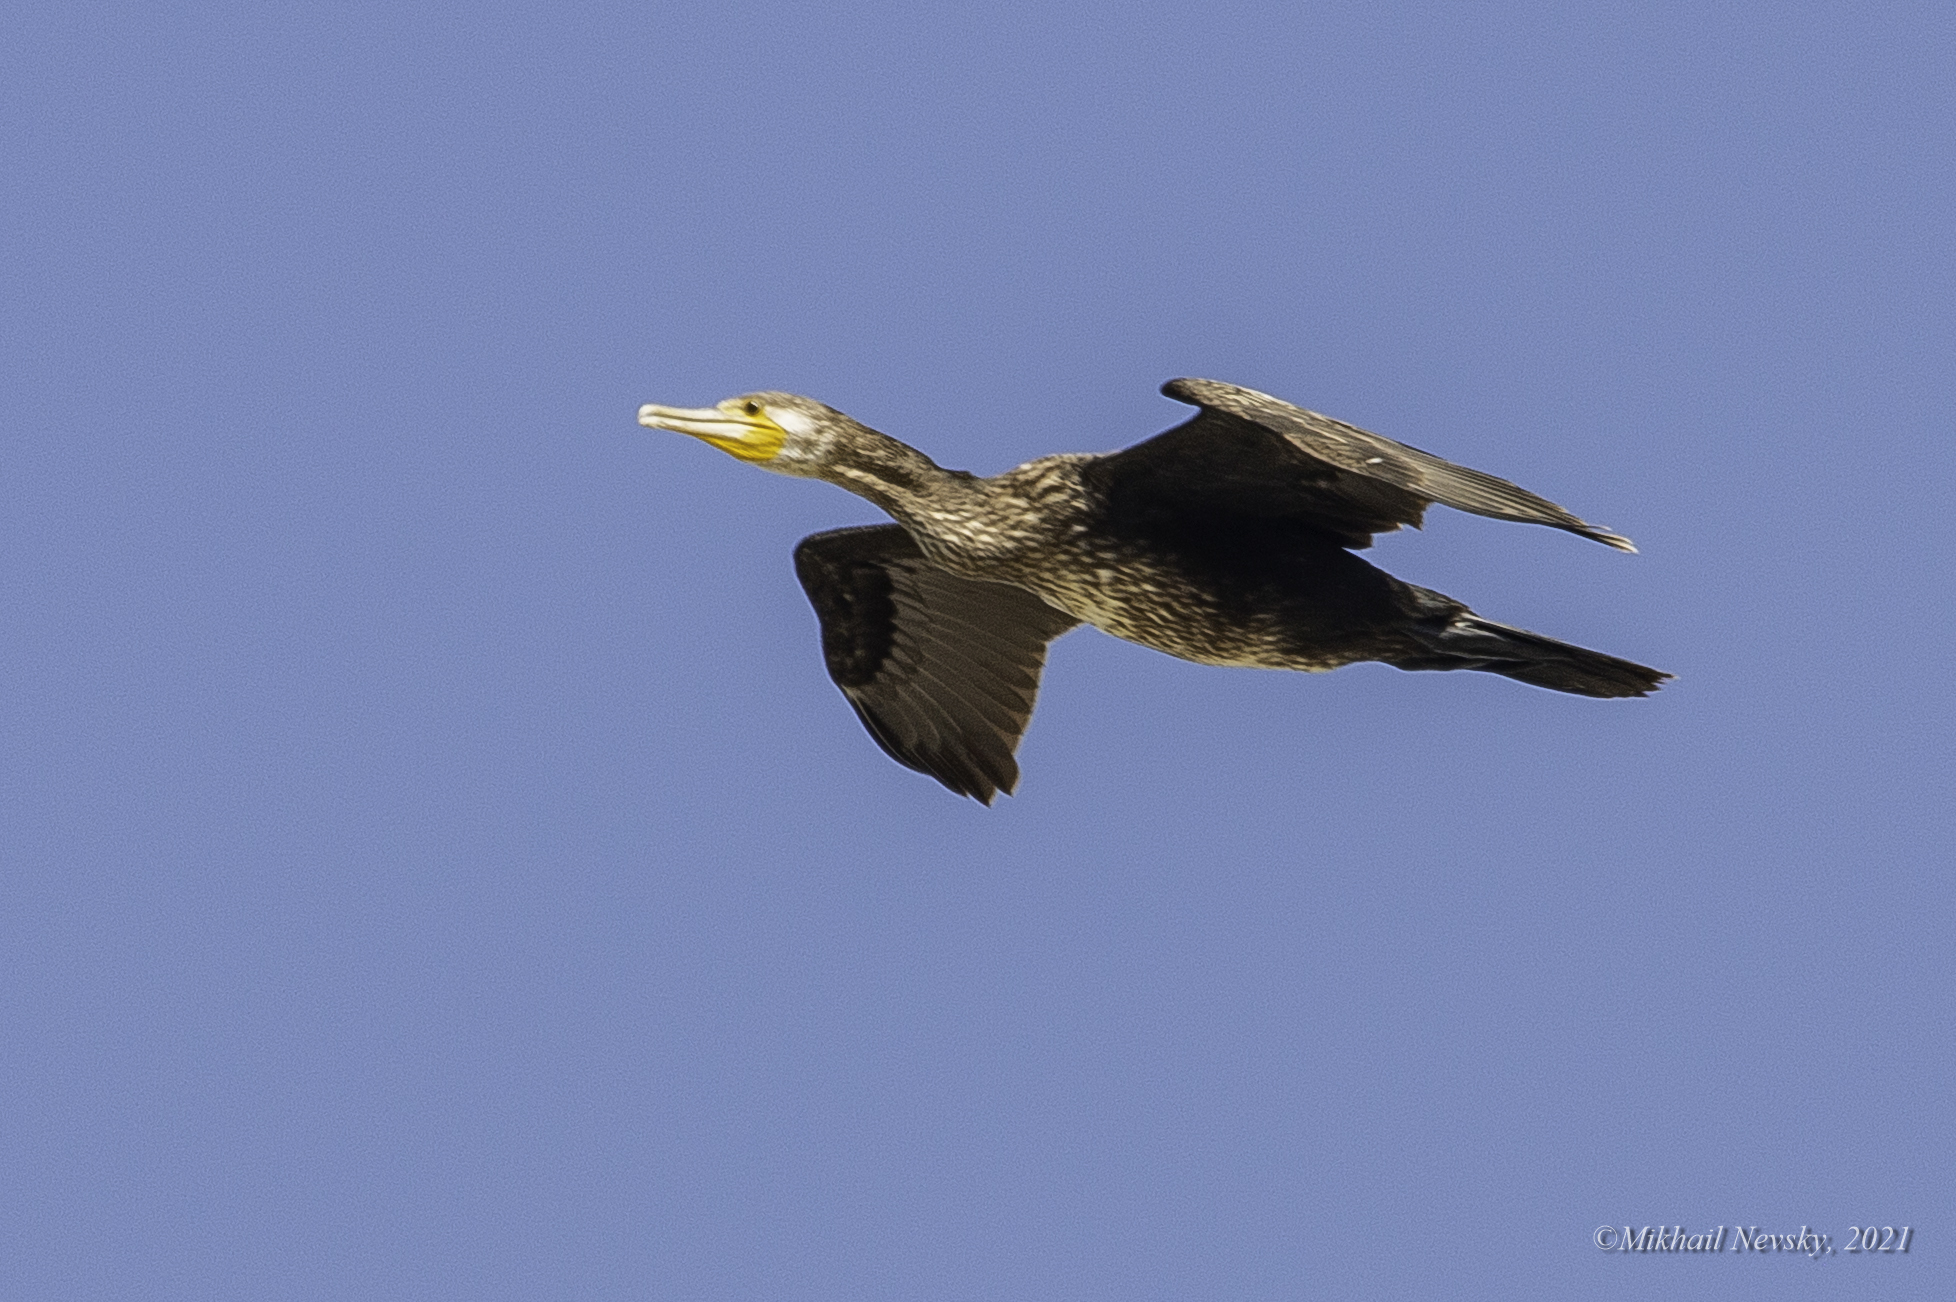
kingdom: Animalia
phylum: Chordata
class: Aves
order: Suliformes
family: Phalacrocoracidae
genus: Phalacrocorax
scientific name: Phalacrocorax carbo
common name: Great cormorant
